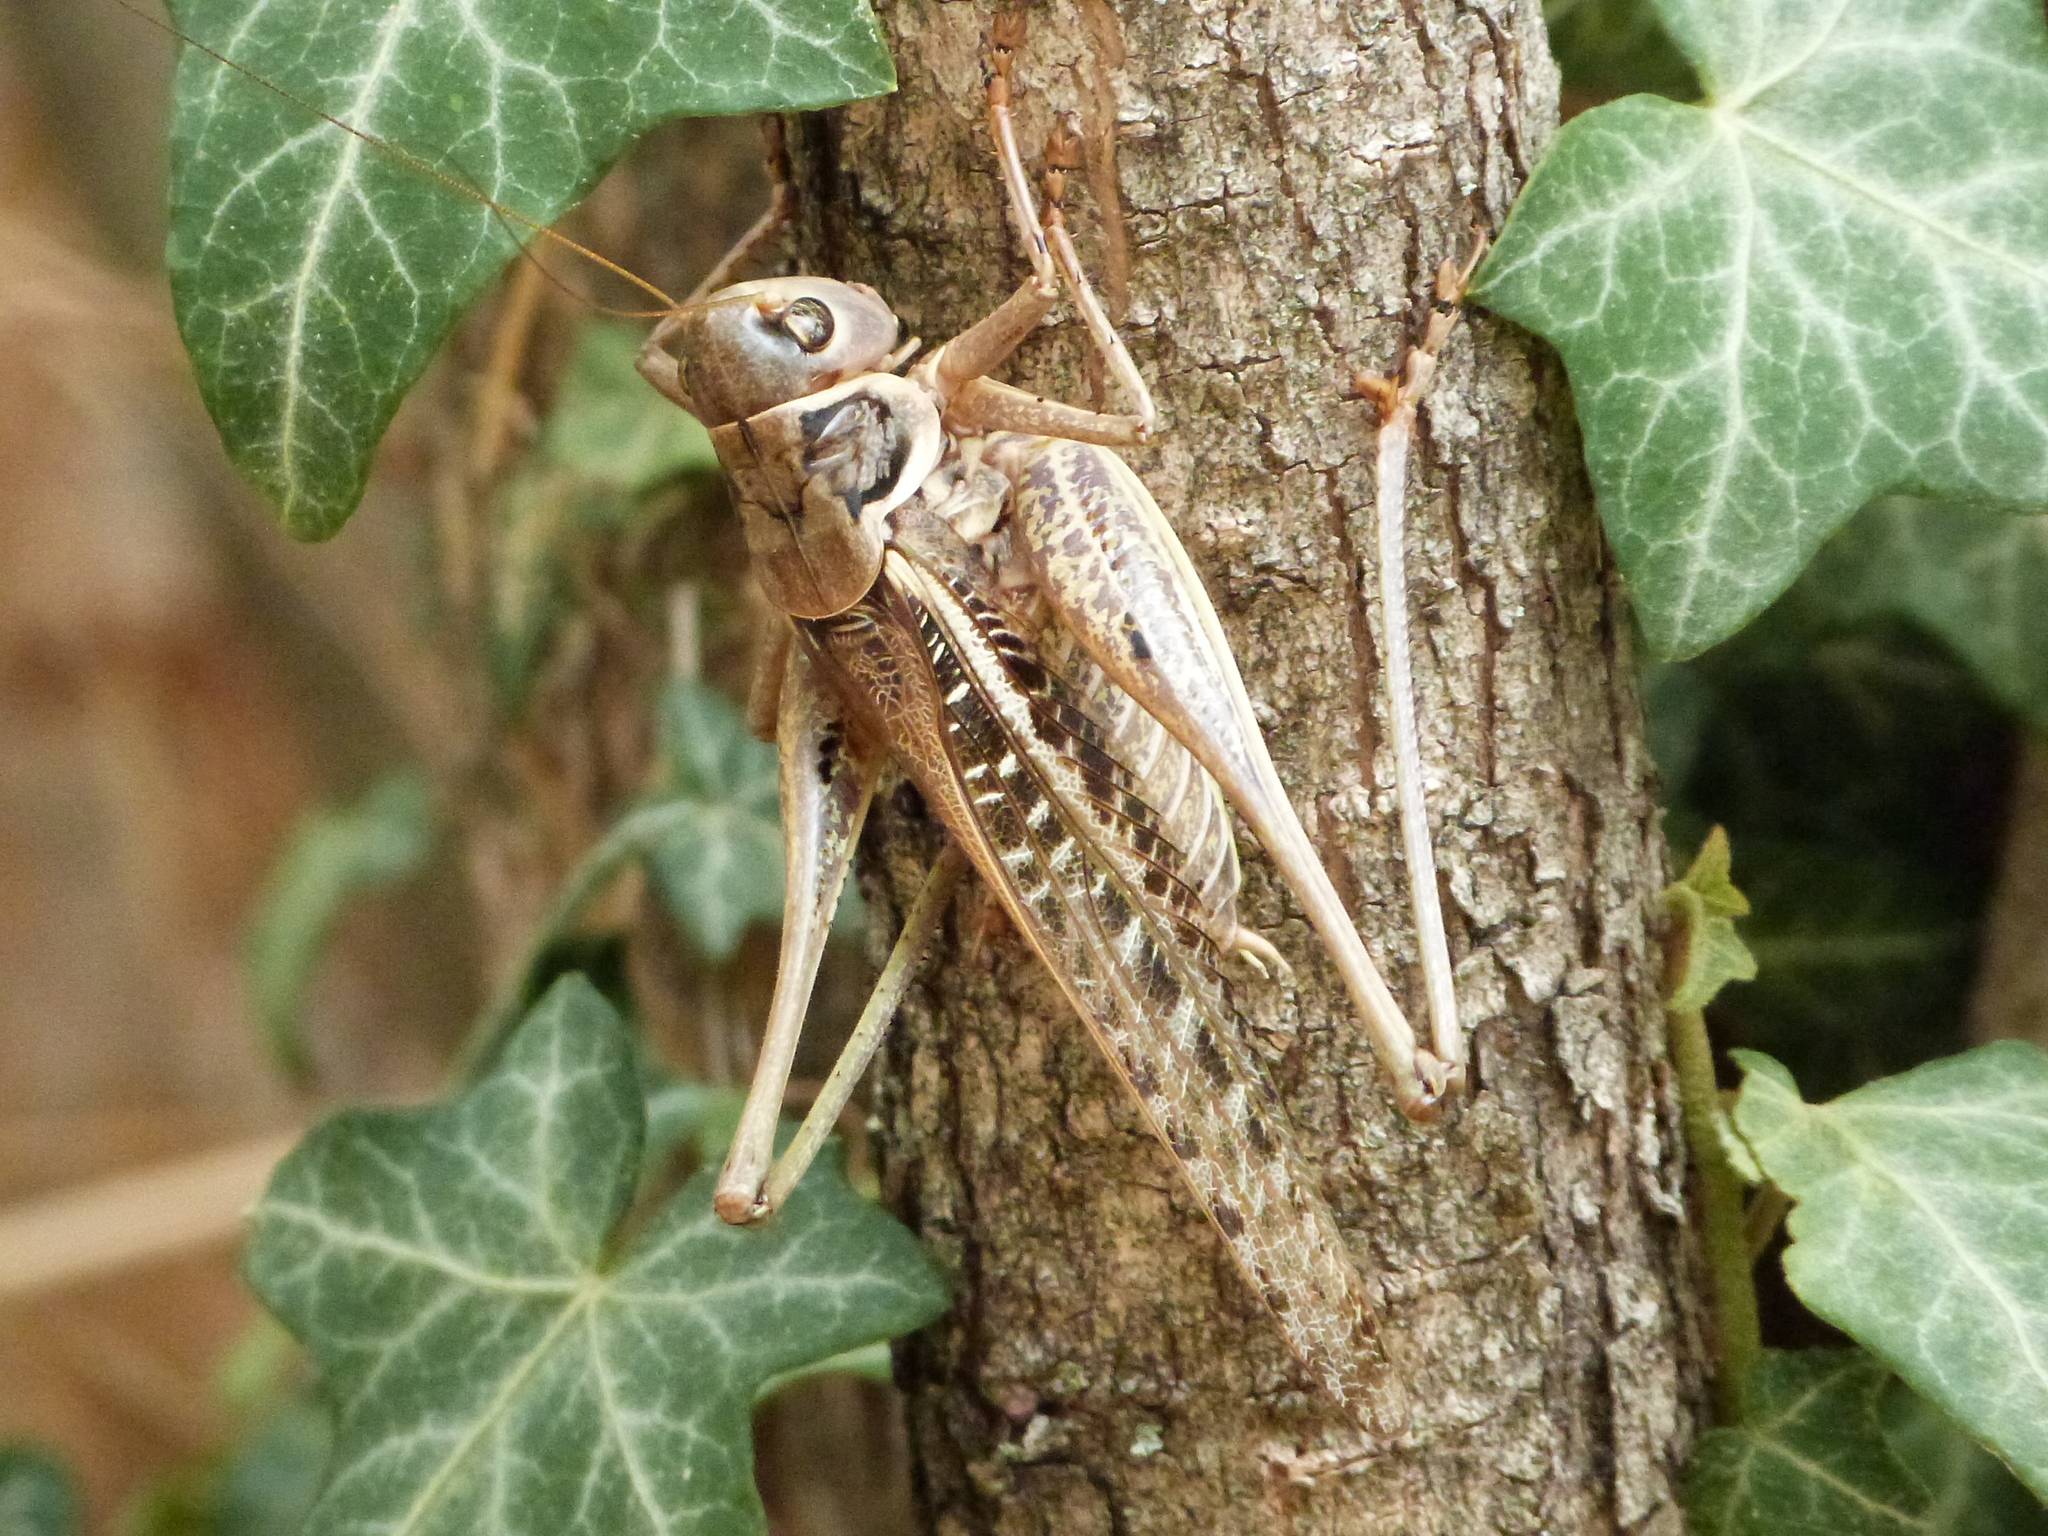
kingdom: Animalia
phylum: Arthropoda
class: Insecta
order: Orthoptera
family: Tettigoniidae
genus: Decticus
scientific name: Decticus albifrons
